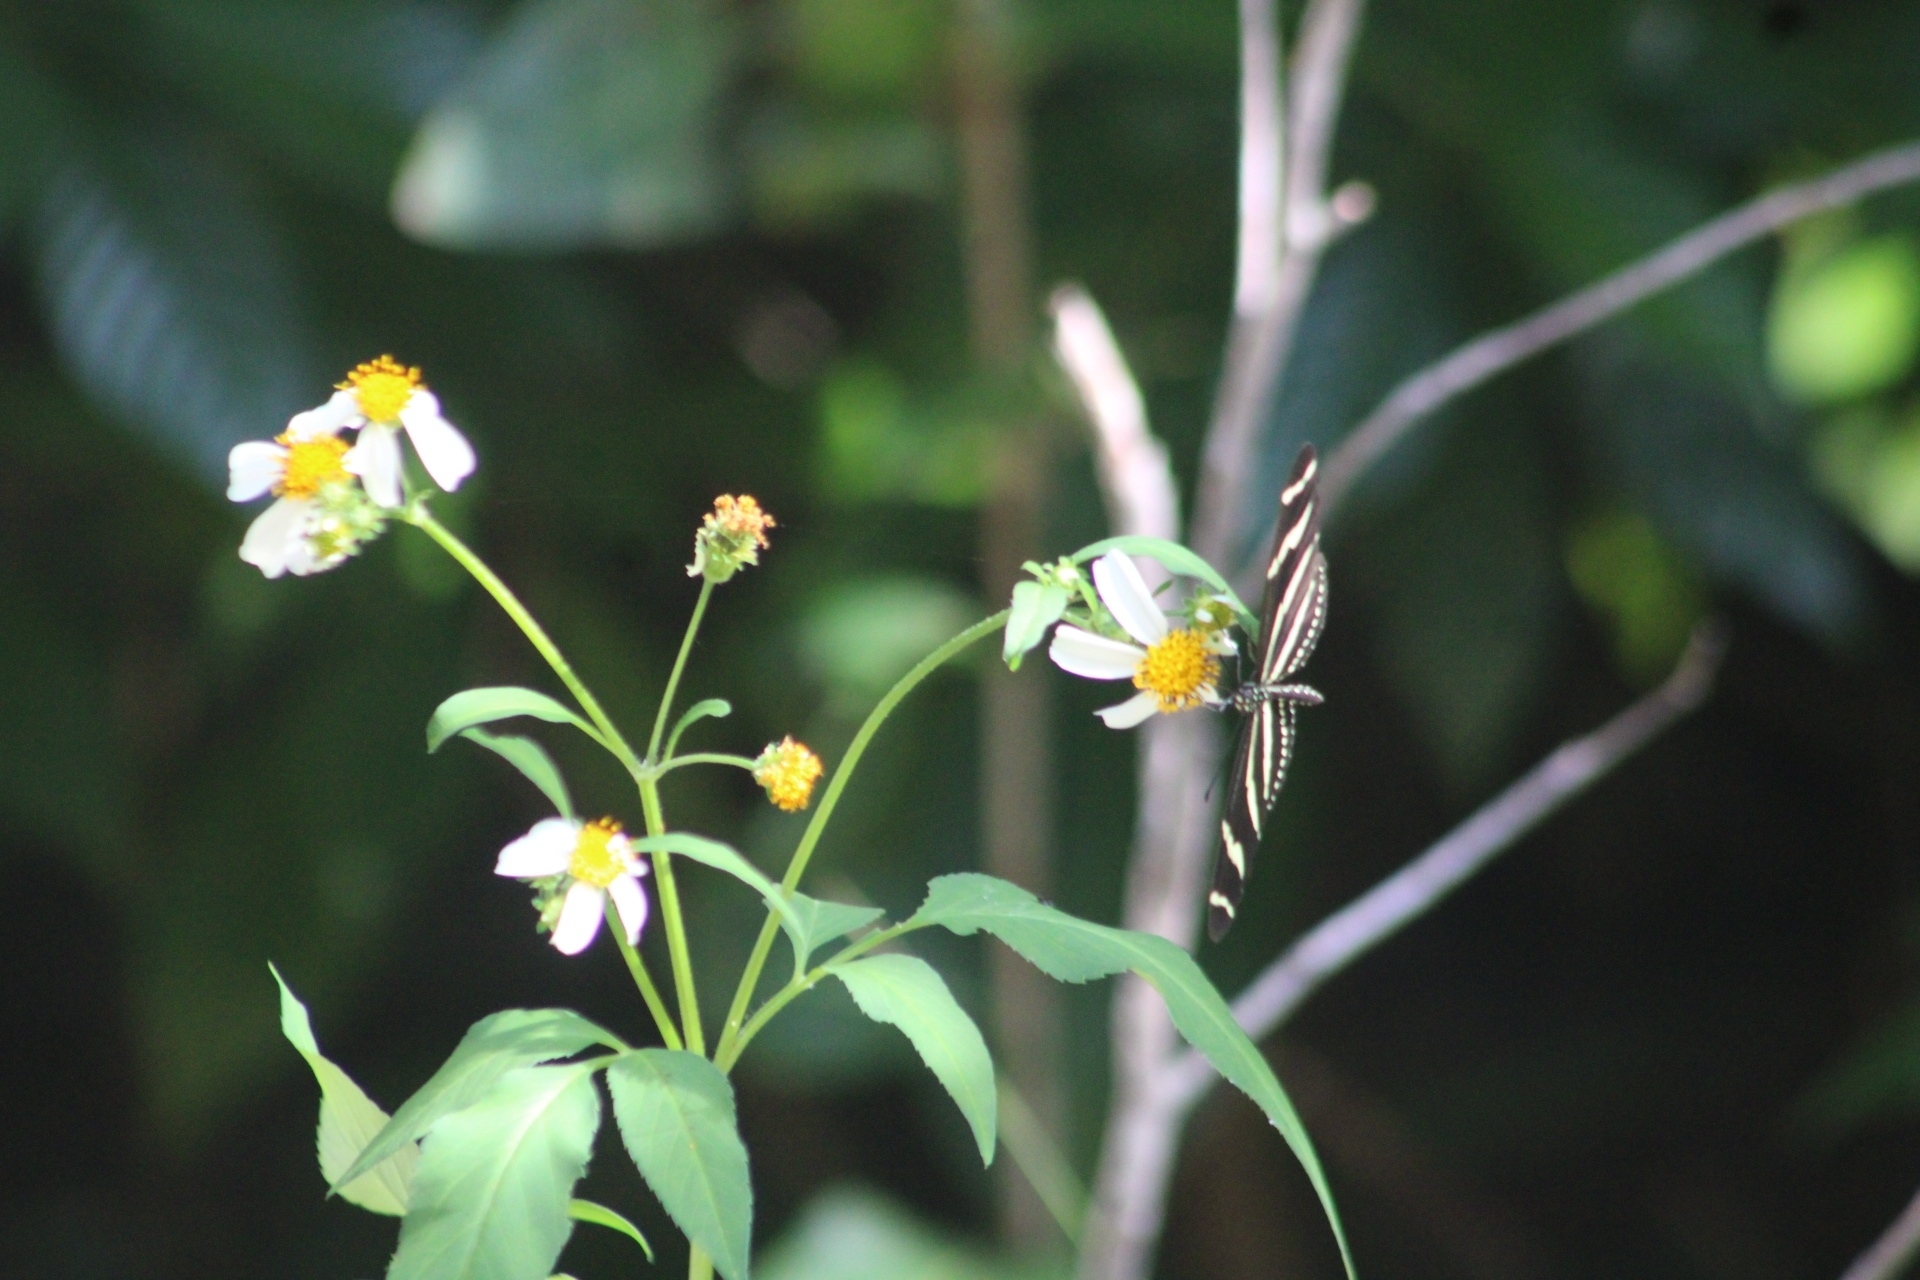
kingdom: Plantae
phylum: Tracheophyta
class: Magnoliopsida
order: Asterales
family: Asteraceae
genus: Bidens
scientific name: Bidens alba
